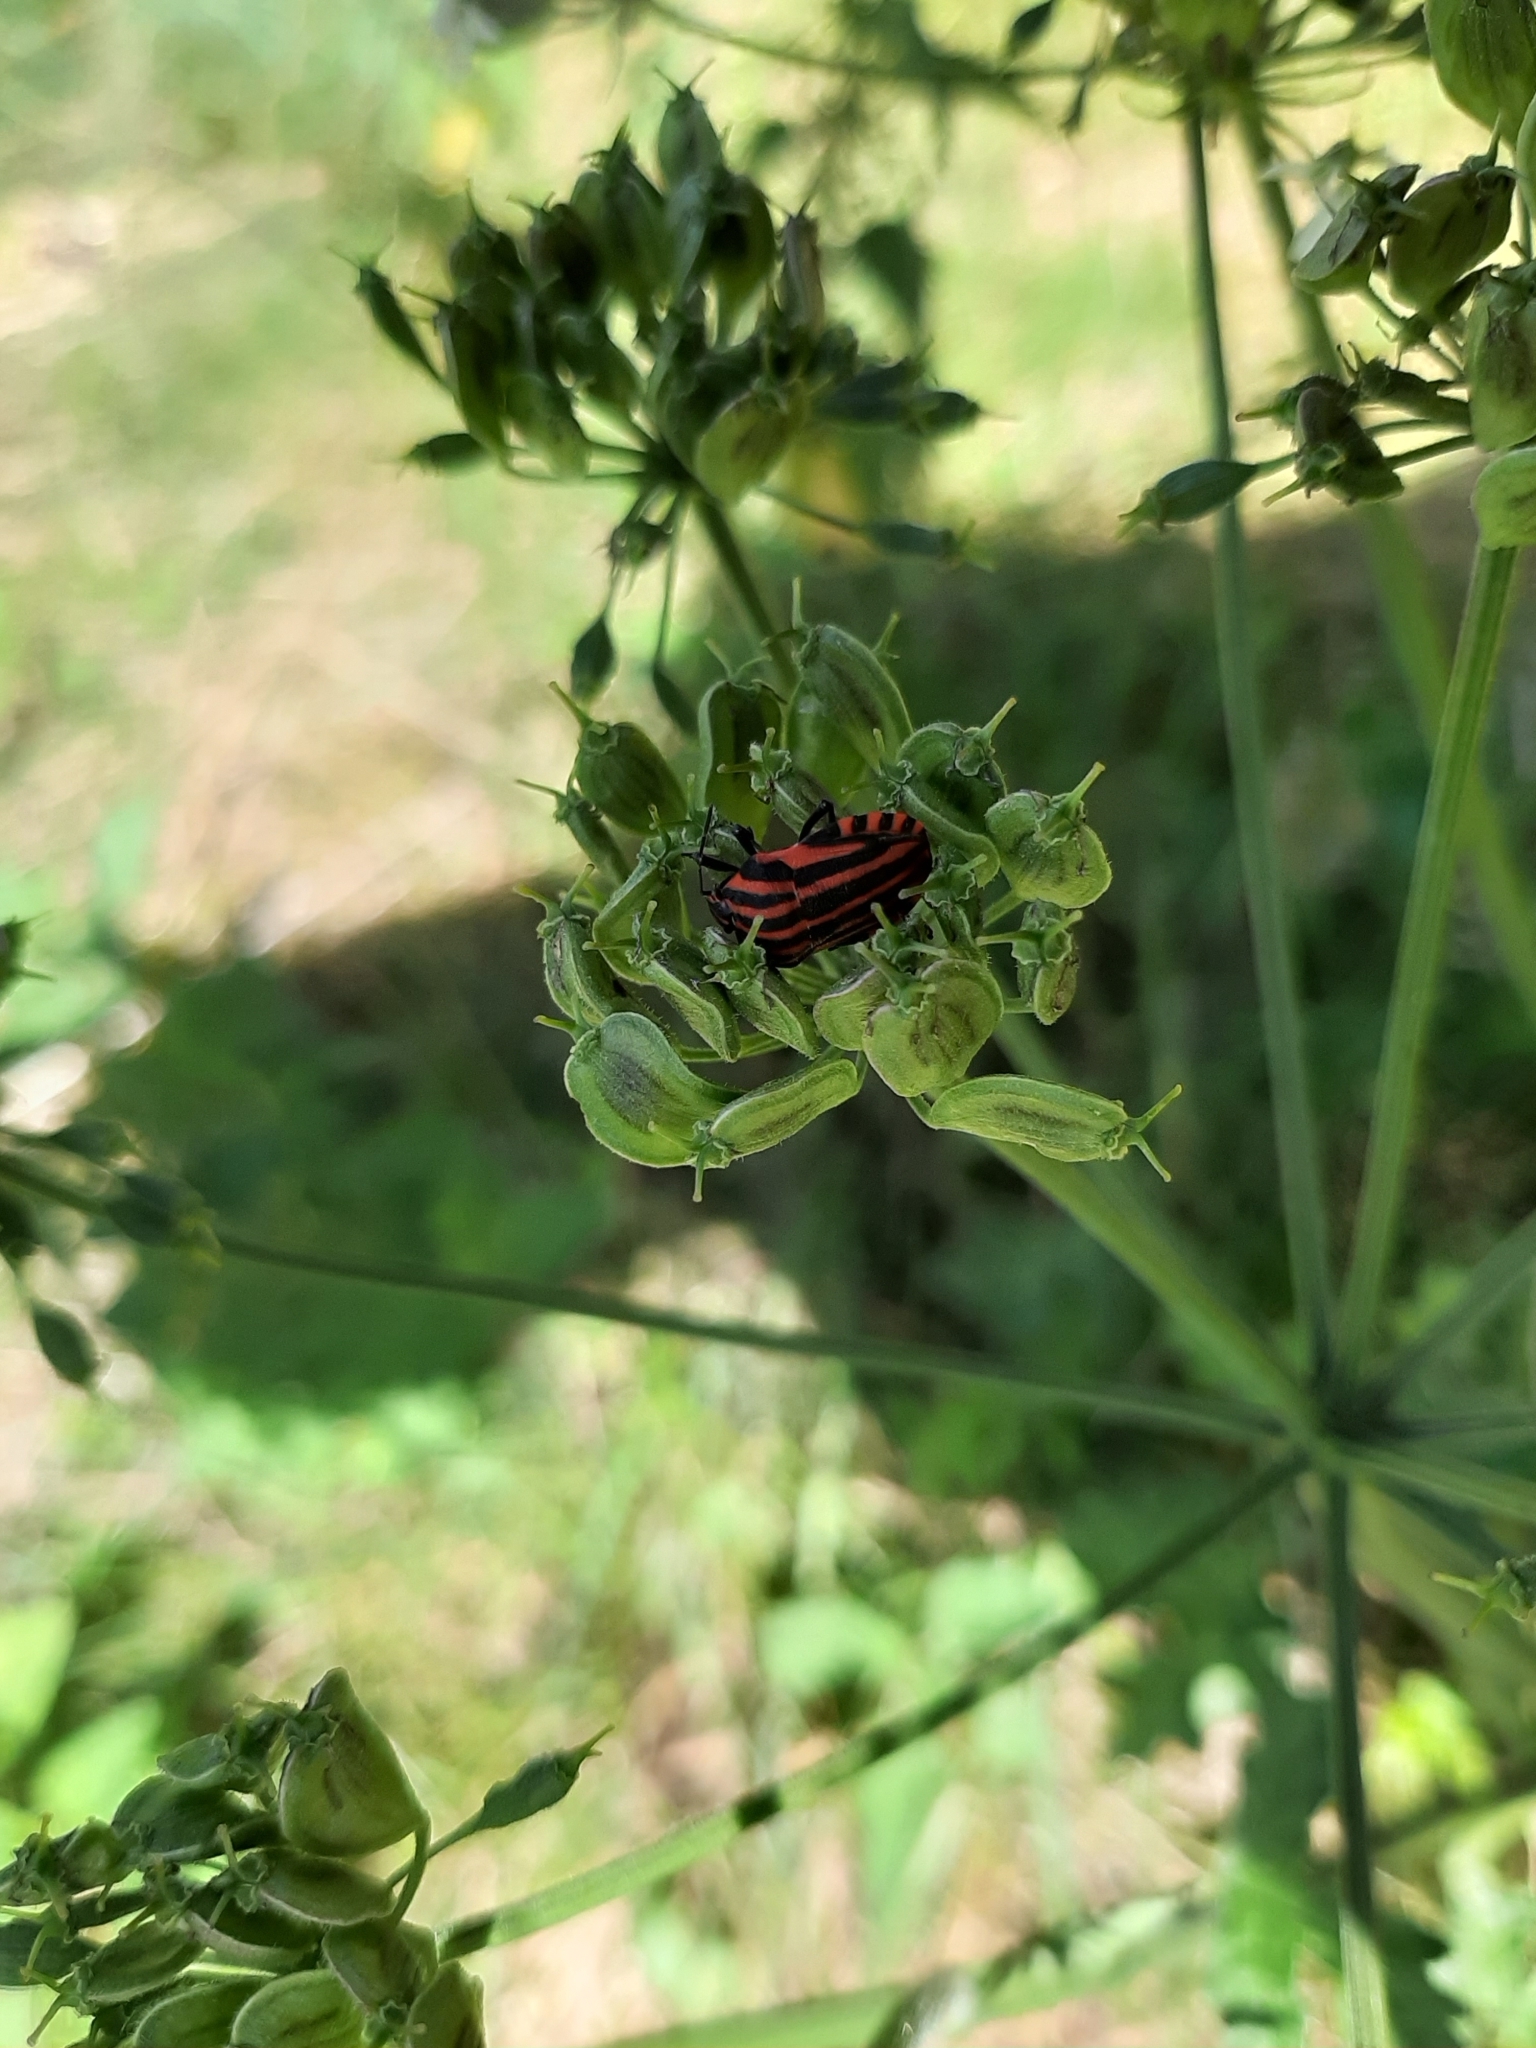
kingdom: Animalia
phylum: Arthropoda
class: Insecta
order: Hemiptera
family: Pentatomidae
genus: Graphosoma
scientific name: Graphosoma italicum
